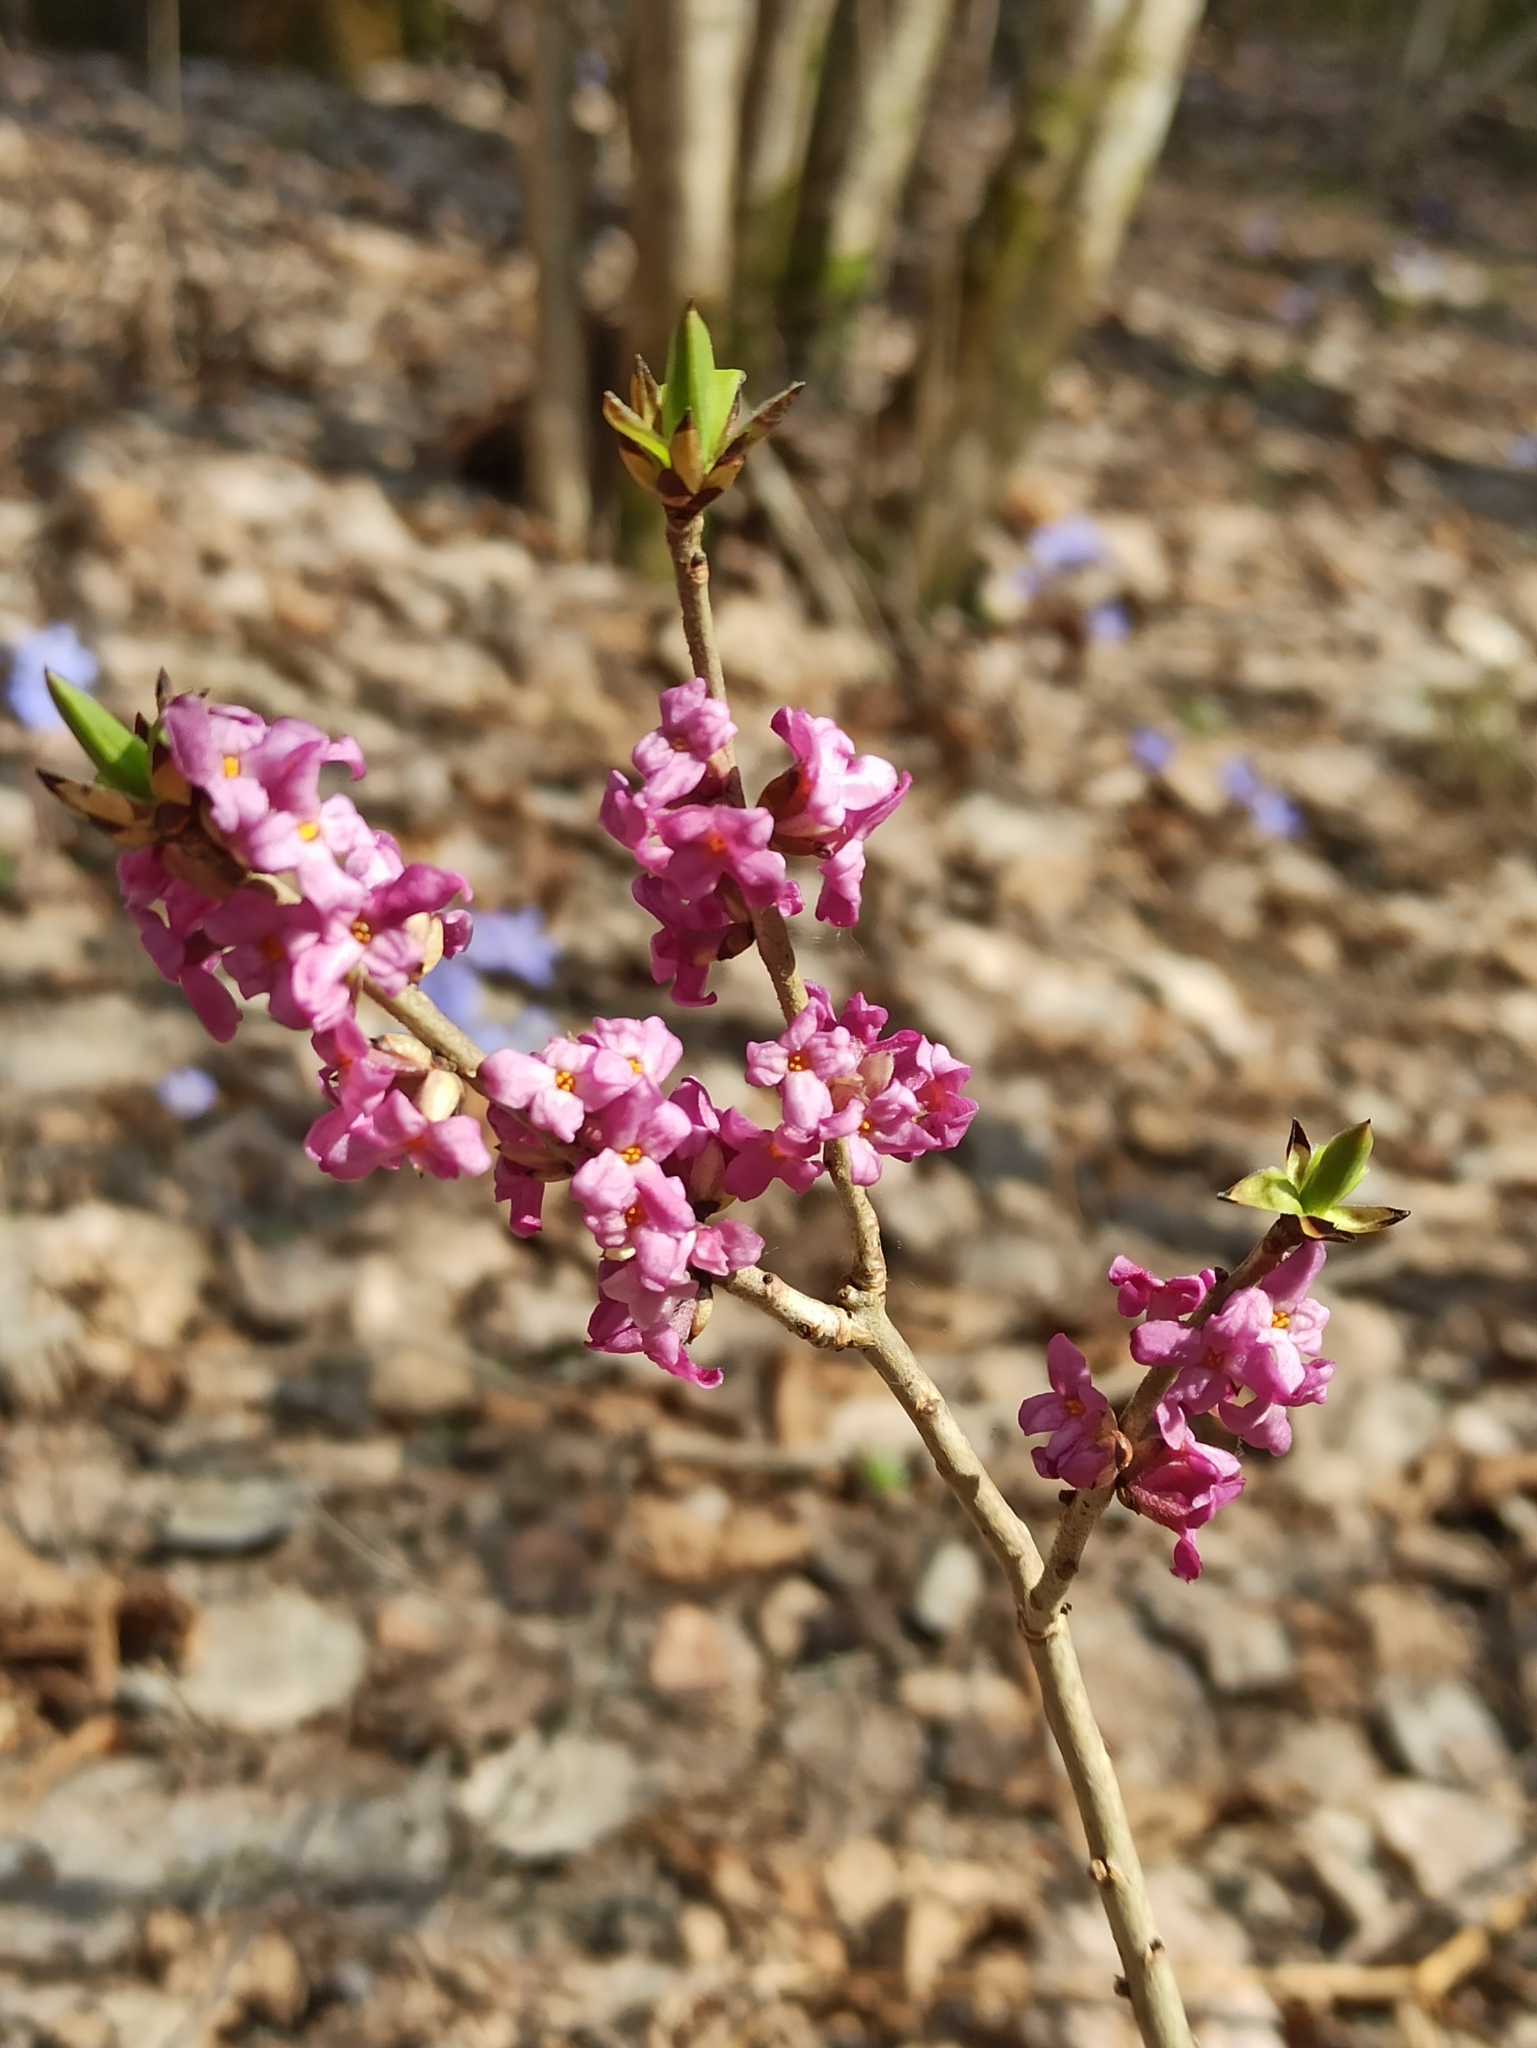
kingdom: Plantae
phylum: Tracheophyta
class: Magnoliopsida
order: Malvales
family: Thymelaeaceae
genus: Daphne
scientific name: Daphne mezereum
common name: Mezereon
